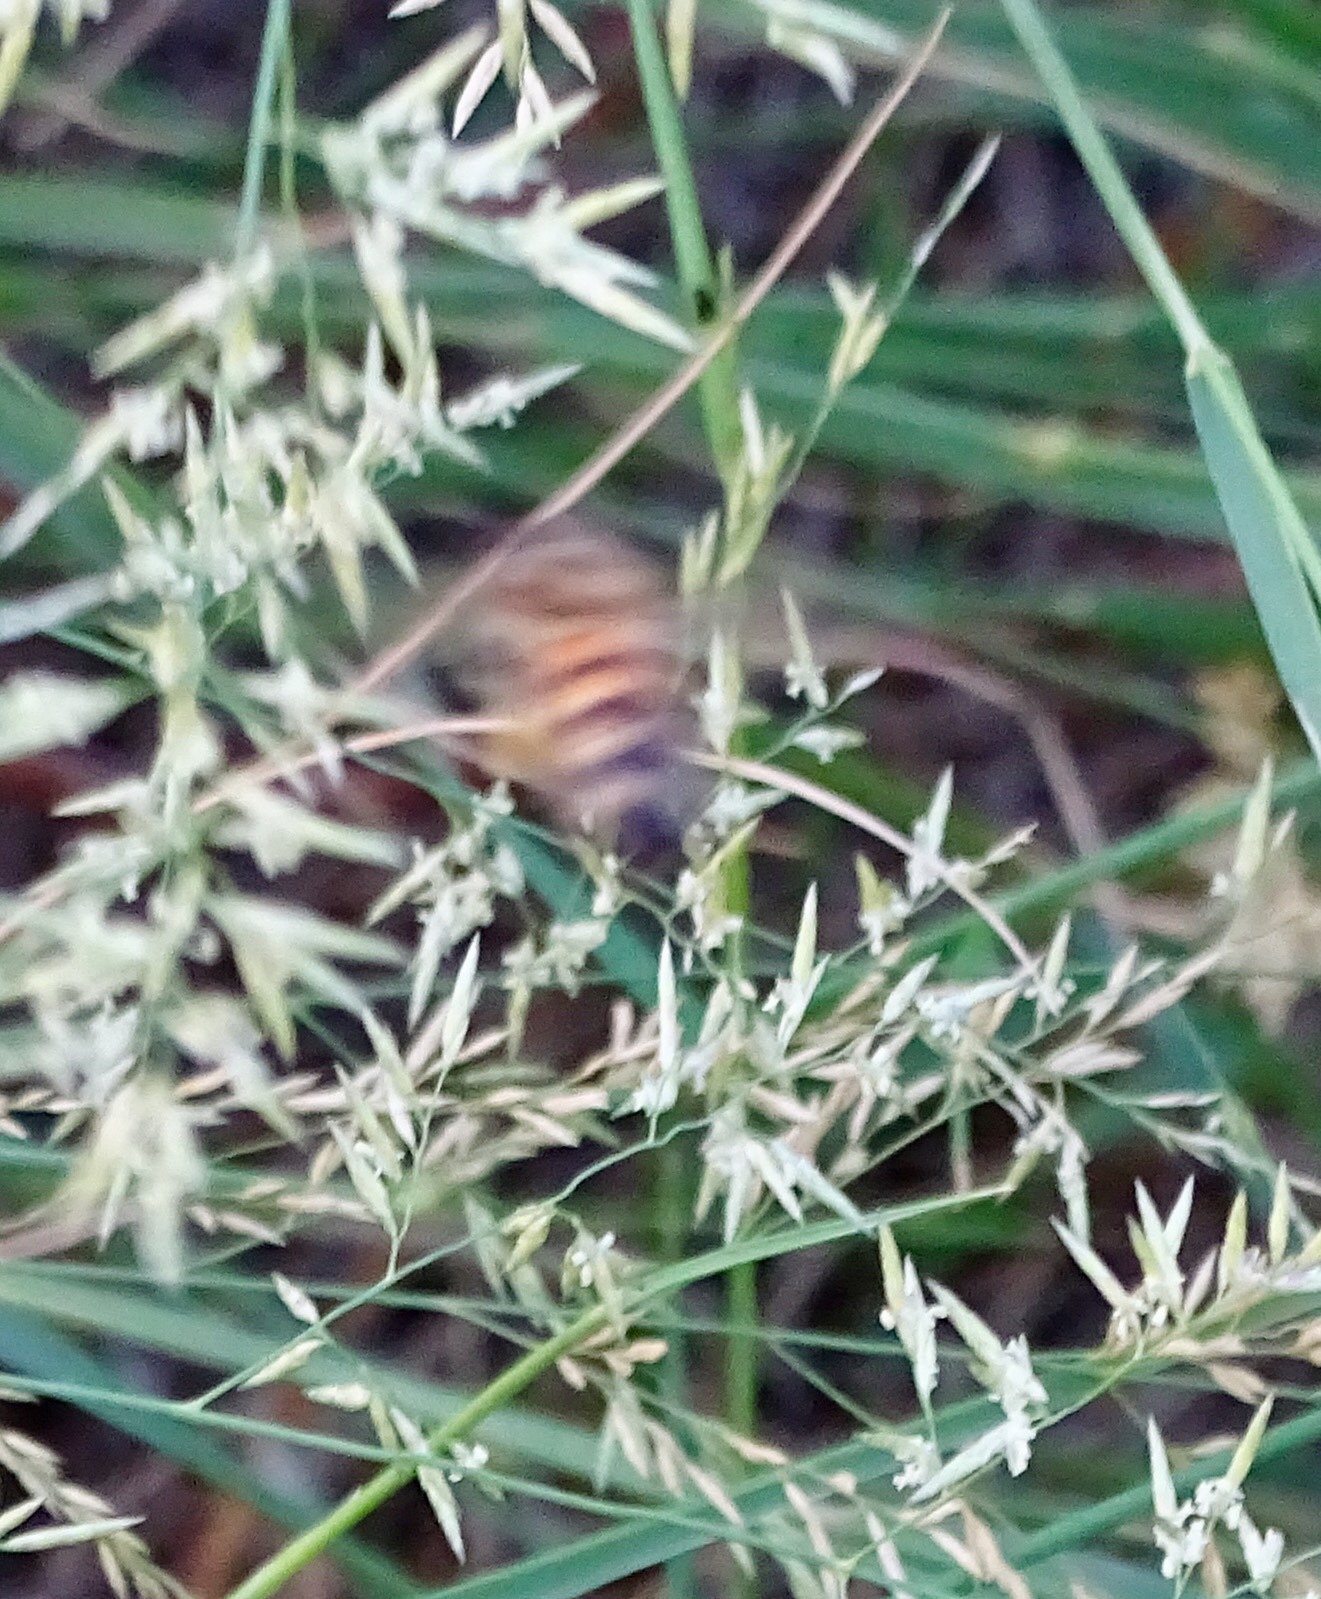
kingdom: Animalia
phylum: Arthropoda
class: Insecta
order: Hymenoptera
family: Apidae
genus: Apis
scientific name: Apis mellifera
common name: Honey bee
